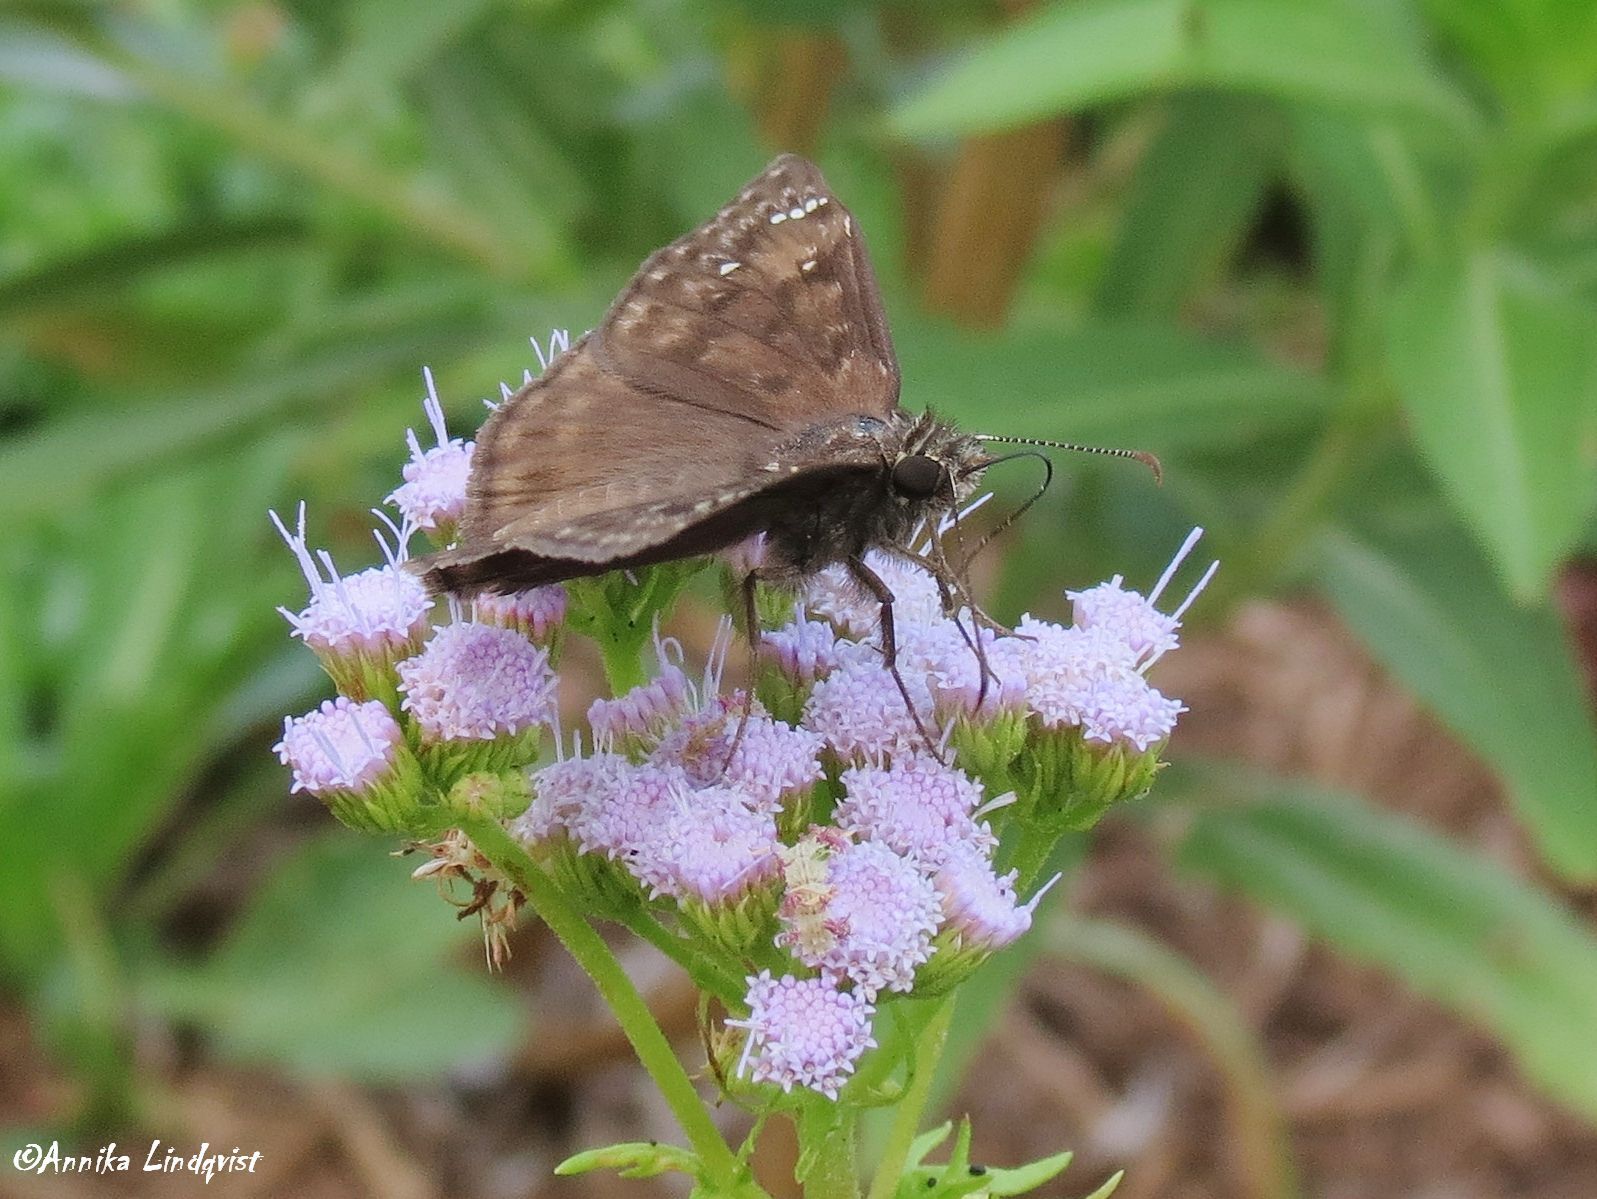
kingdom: Animalia
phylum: Arthropoda
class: Insecta
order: Lepidoptera
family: Hesperiidae
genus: Erynnis
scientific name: Erynnis horatius
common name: Horace's duskywing
